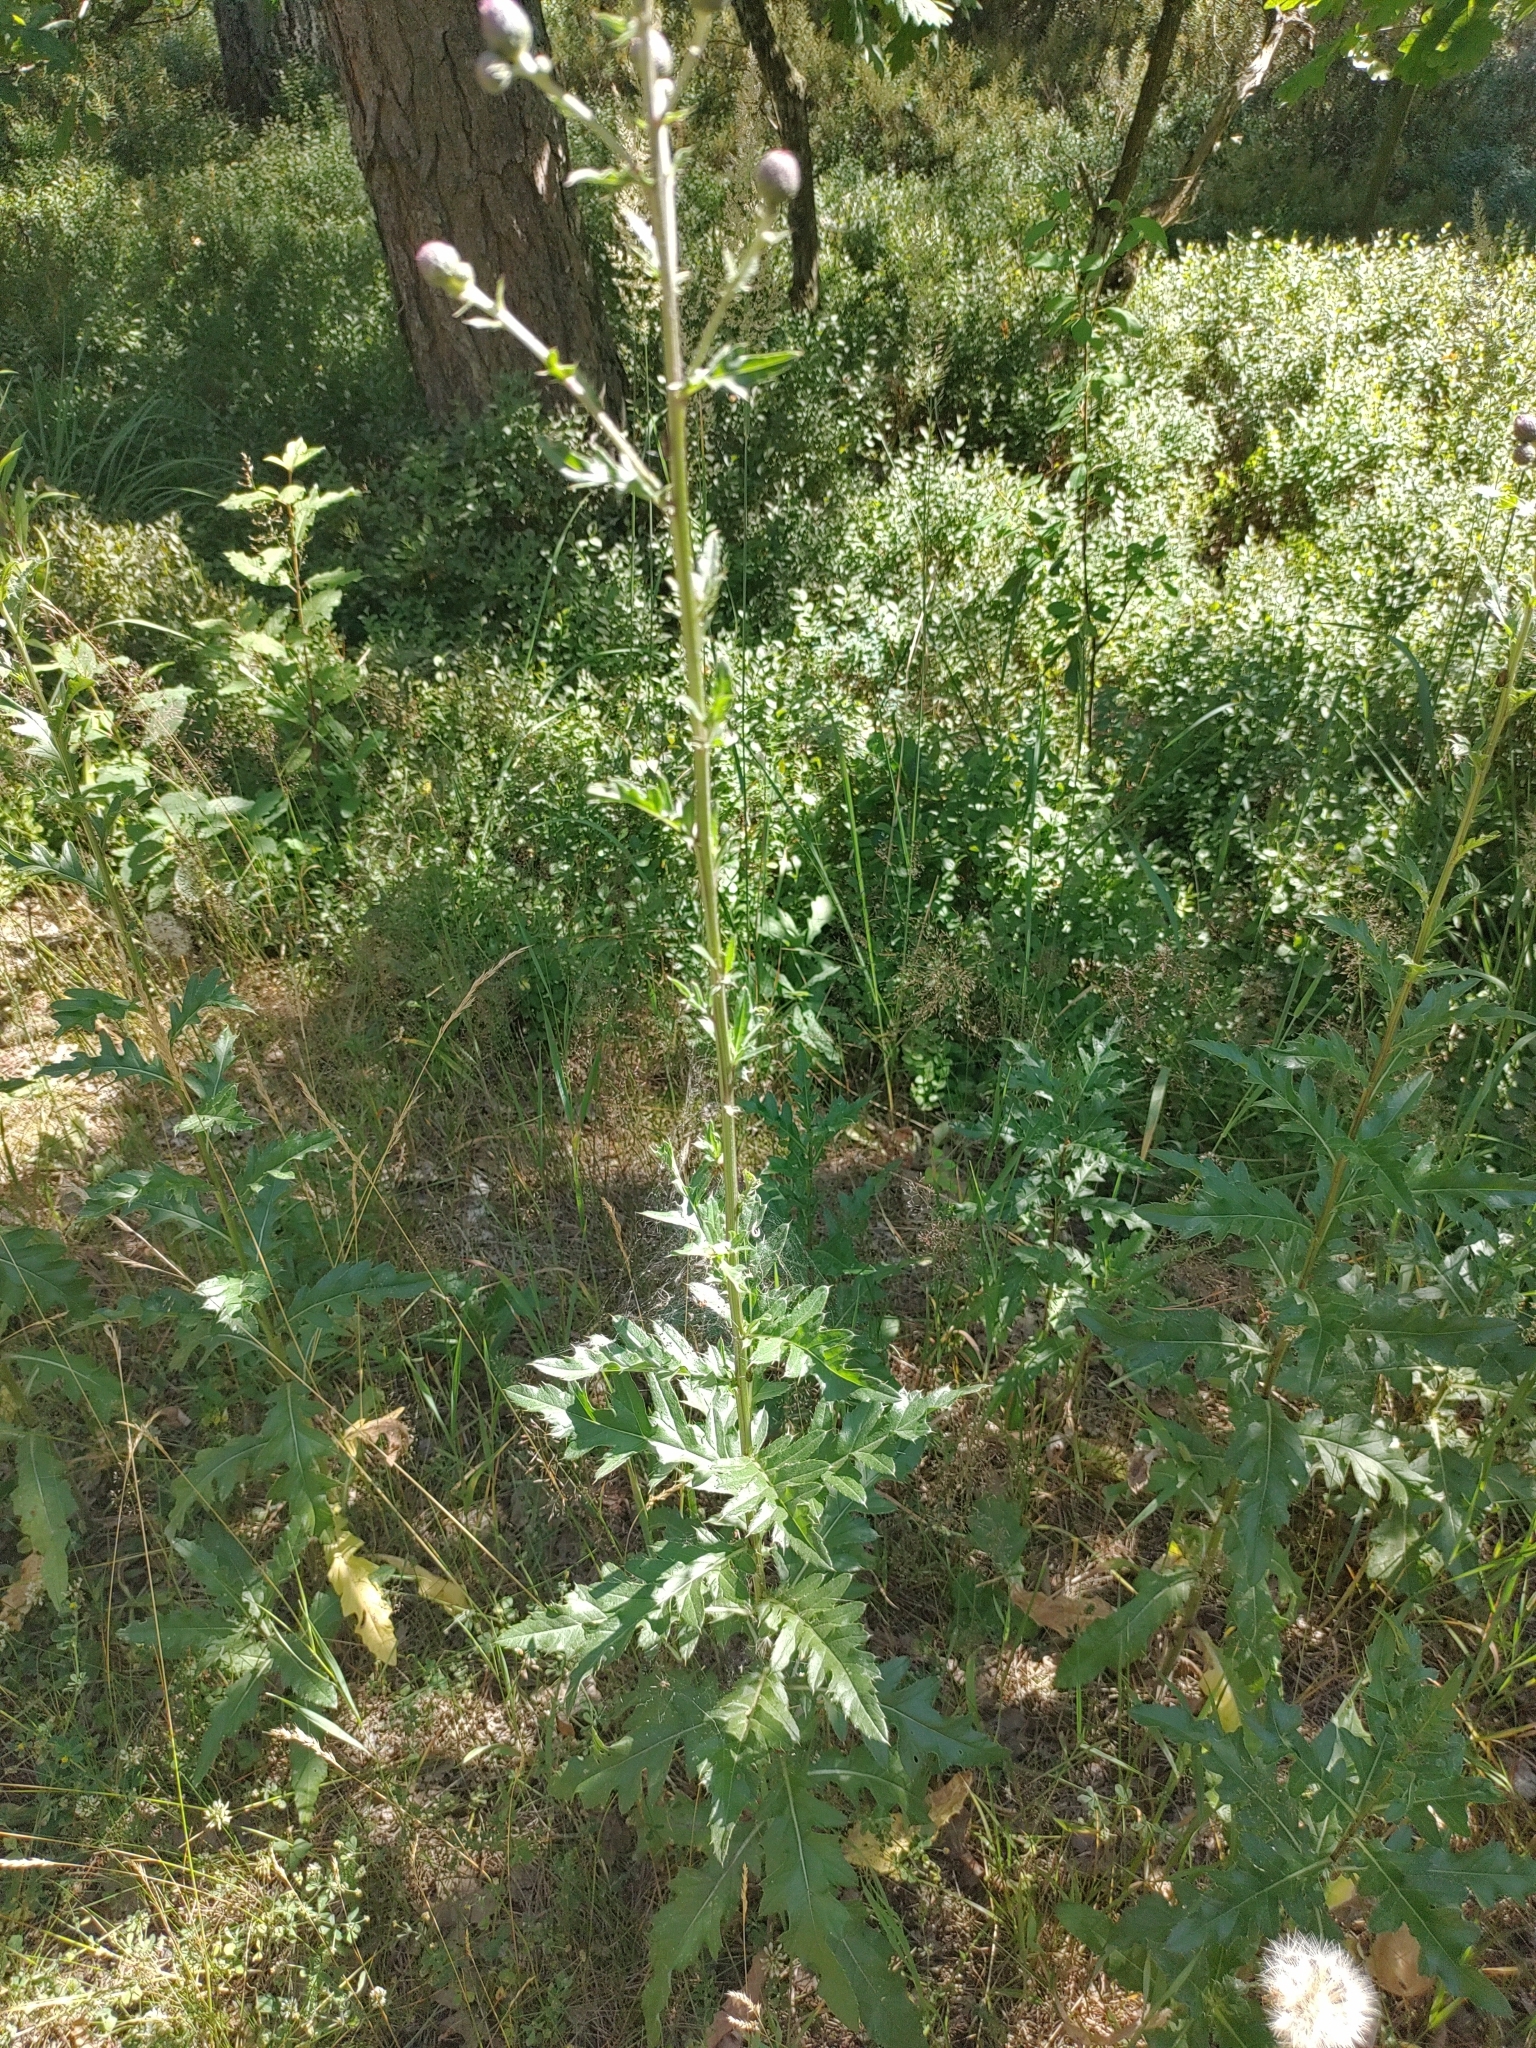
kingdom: Plantae
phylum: Tracheophyta
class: Magnoliopsida
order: Asterales
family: Asteraceae
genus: Cirsium
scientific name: Cirsium arvense
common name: Creeping thistle
